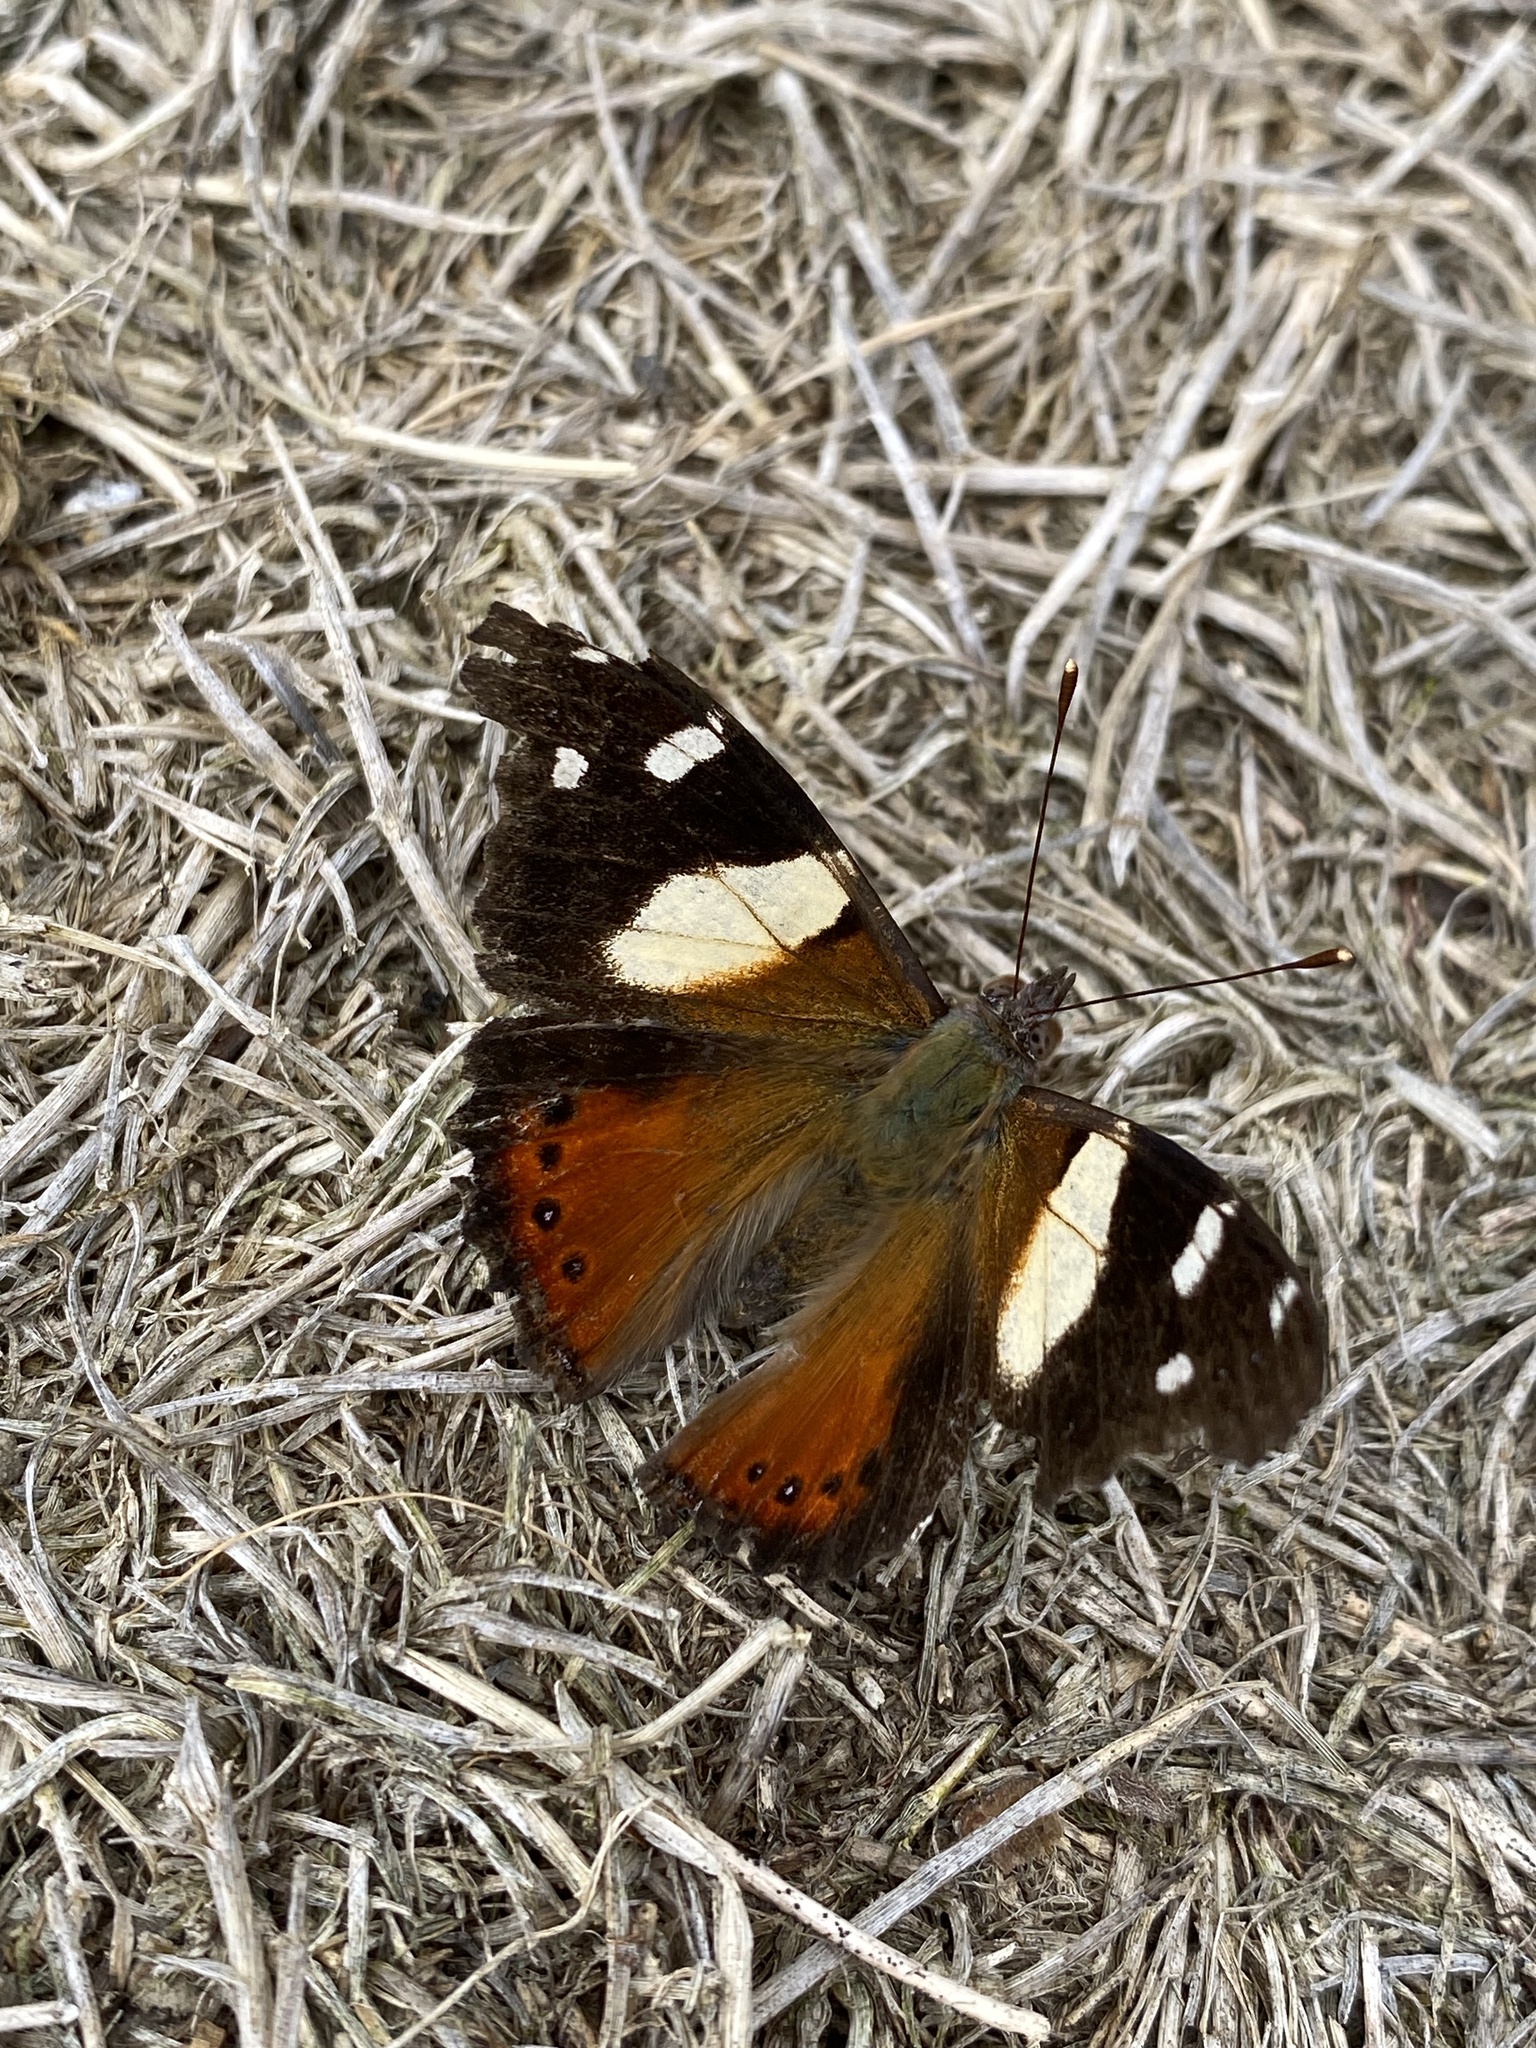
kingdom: Animalia
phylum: Arthropoda
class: Insecta
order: Lepidoptera
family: Nymphalidae
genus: Vanessa
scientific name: Vanessa itea
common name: Yellow admiral
